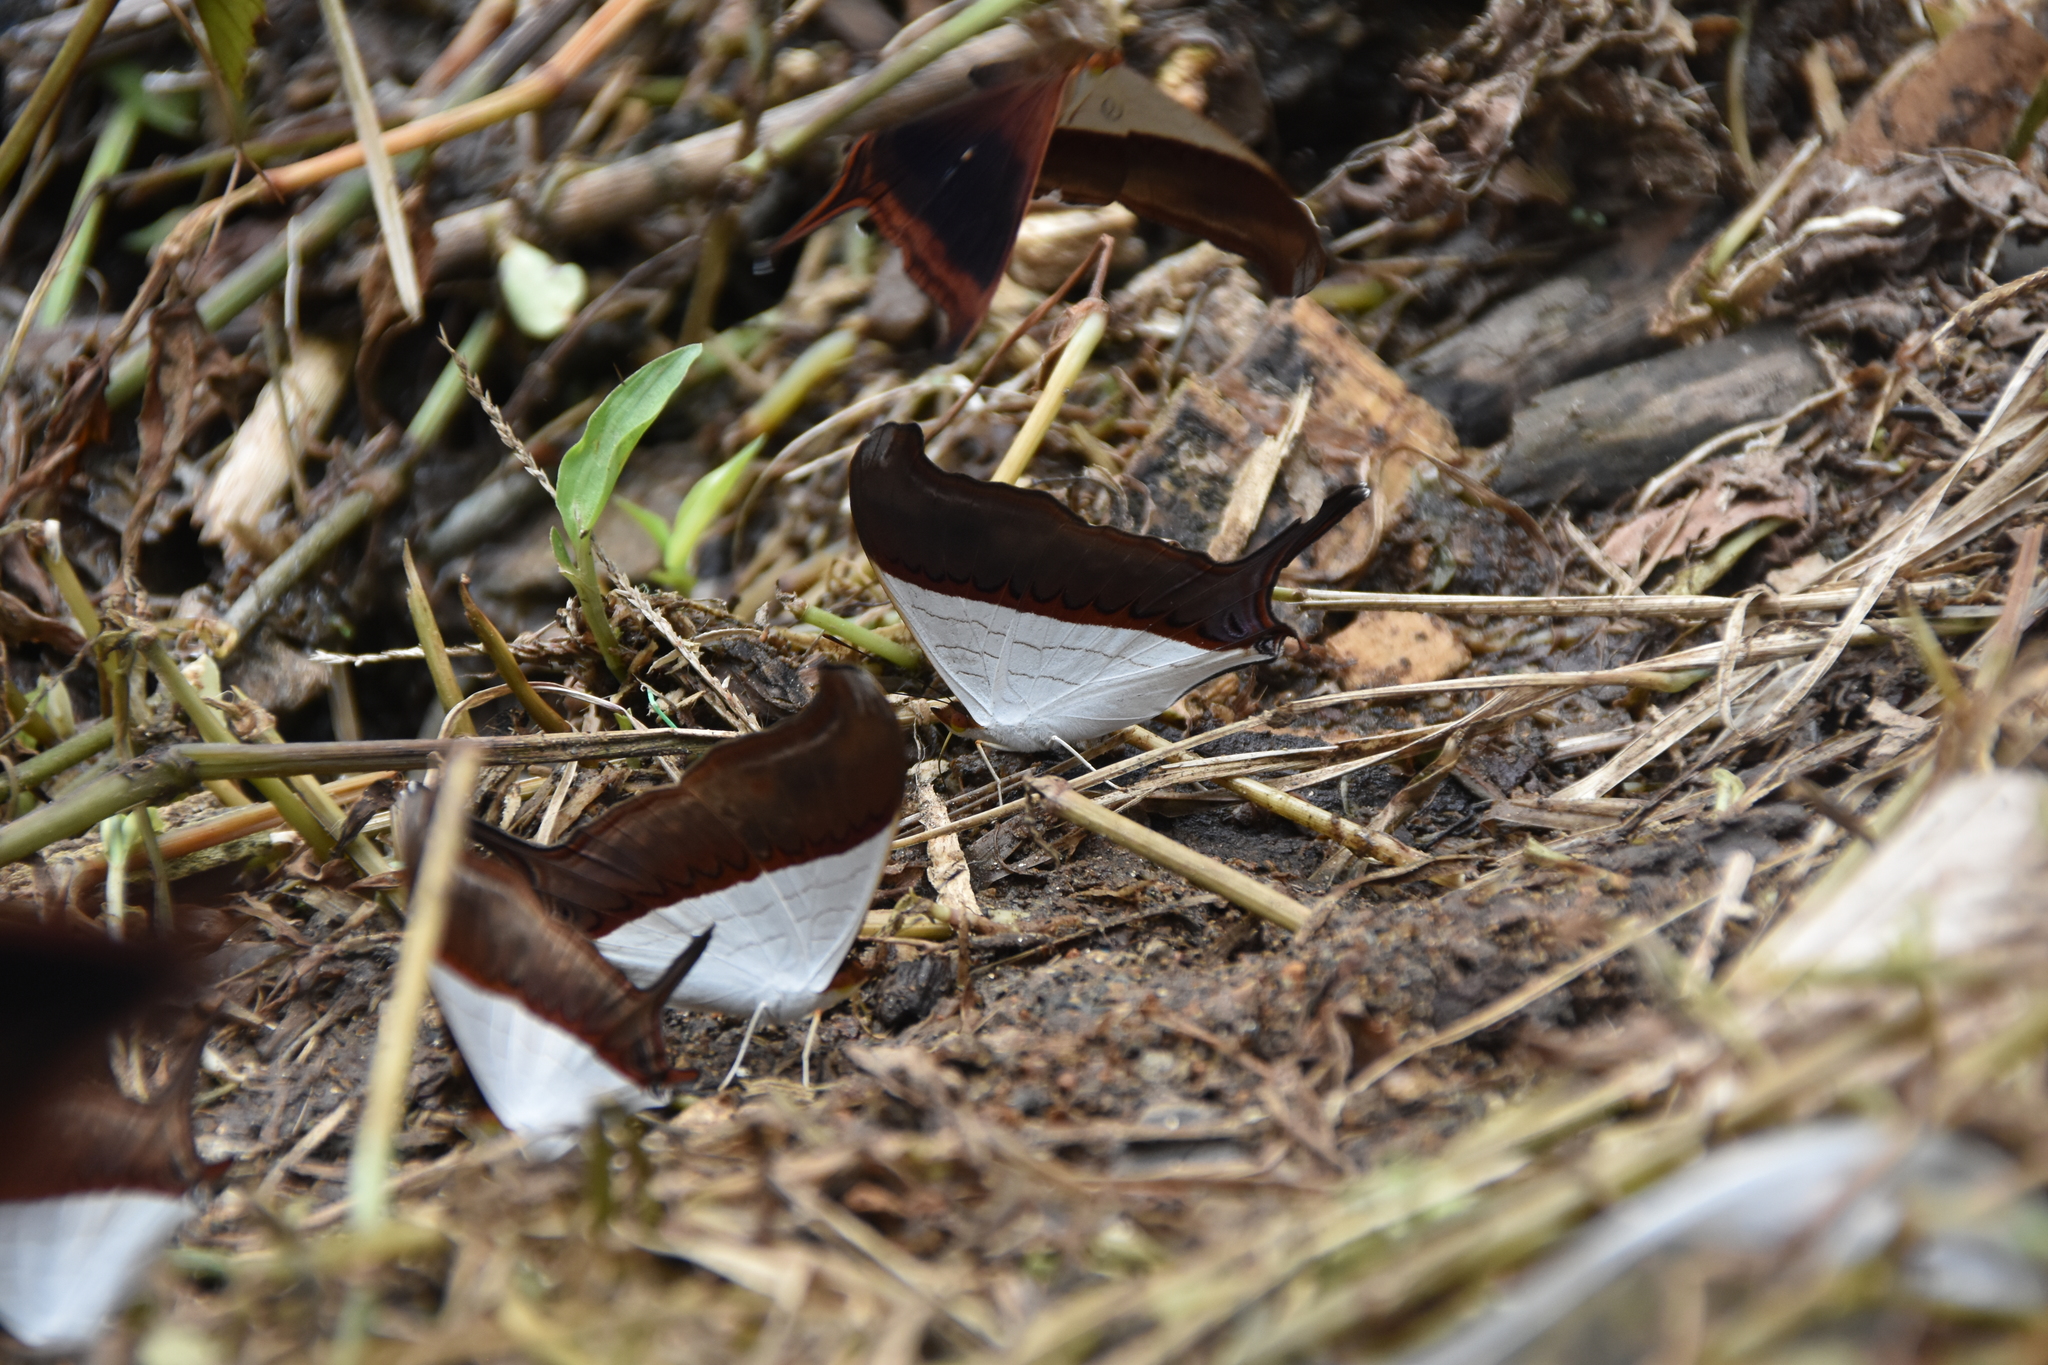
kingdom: Animalia
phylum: Arthropoda
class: Insecta
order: Lepidoptera
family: Nymphalidae
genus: Marpesia
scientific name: Marpesia zerynthia
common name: Waiter daggerwing
